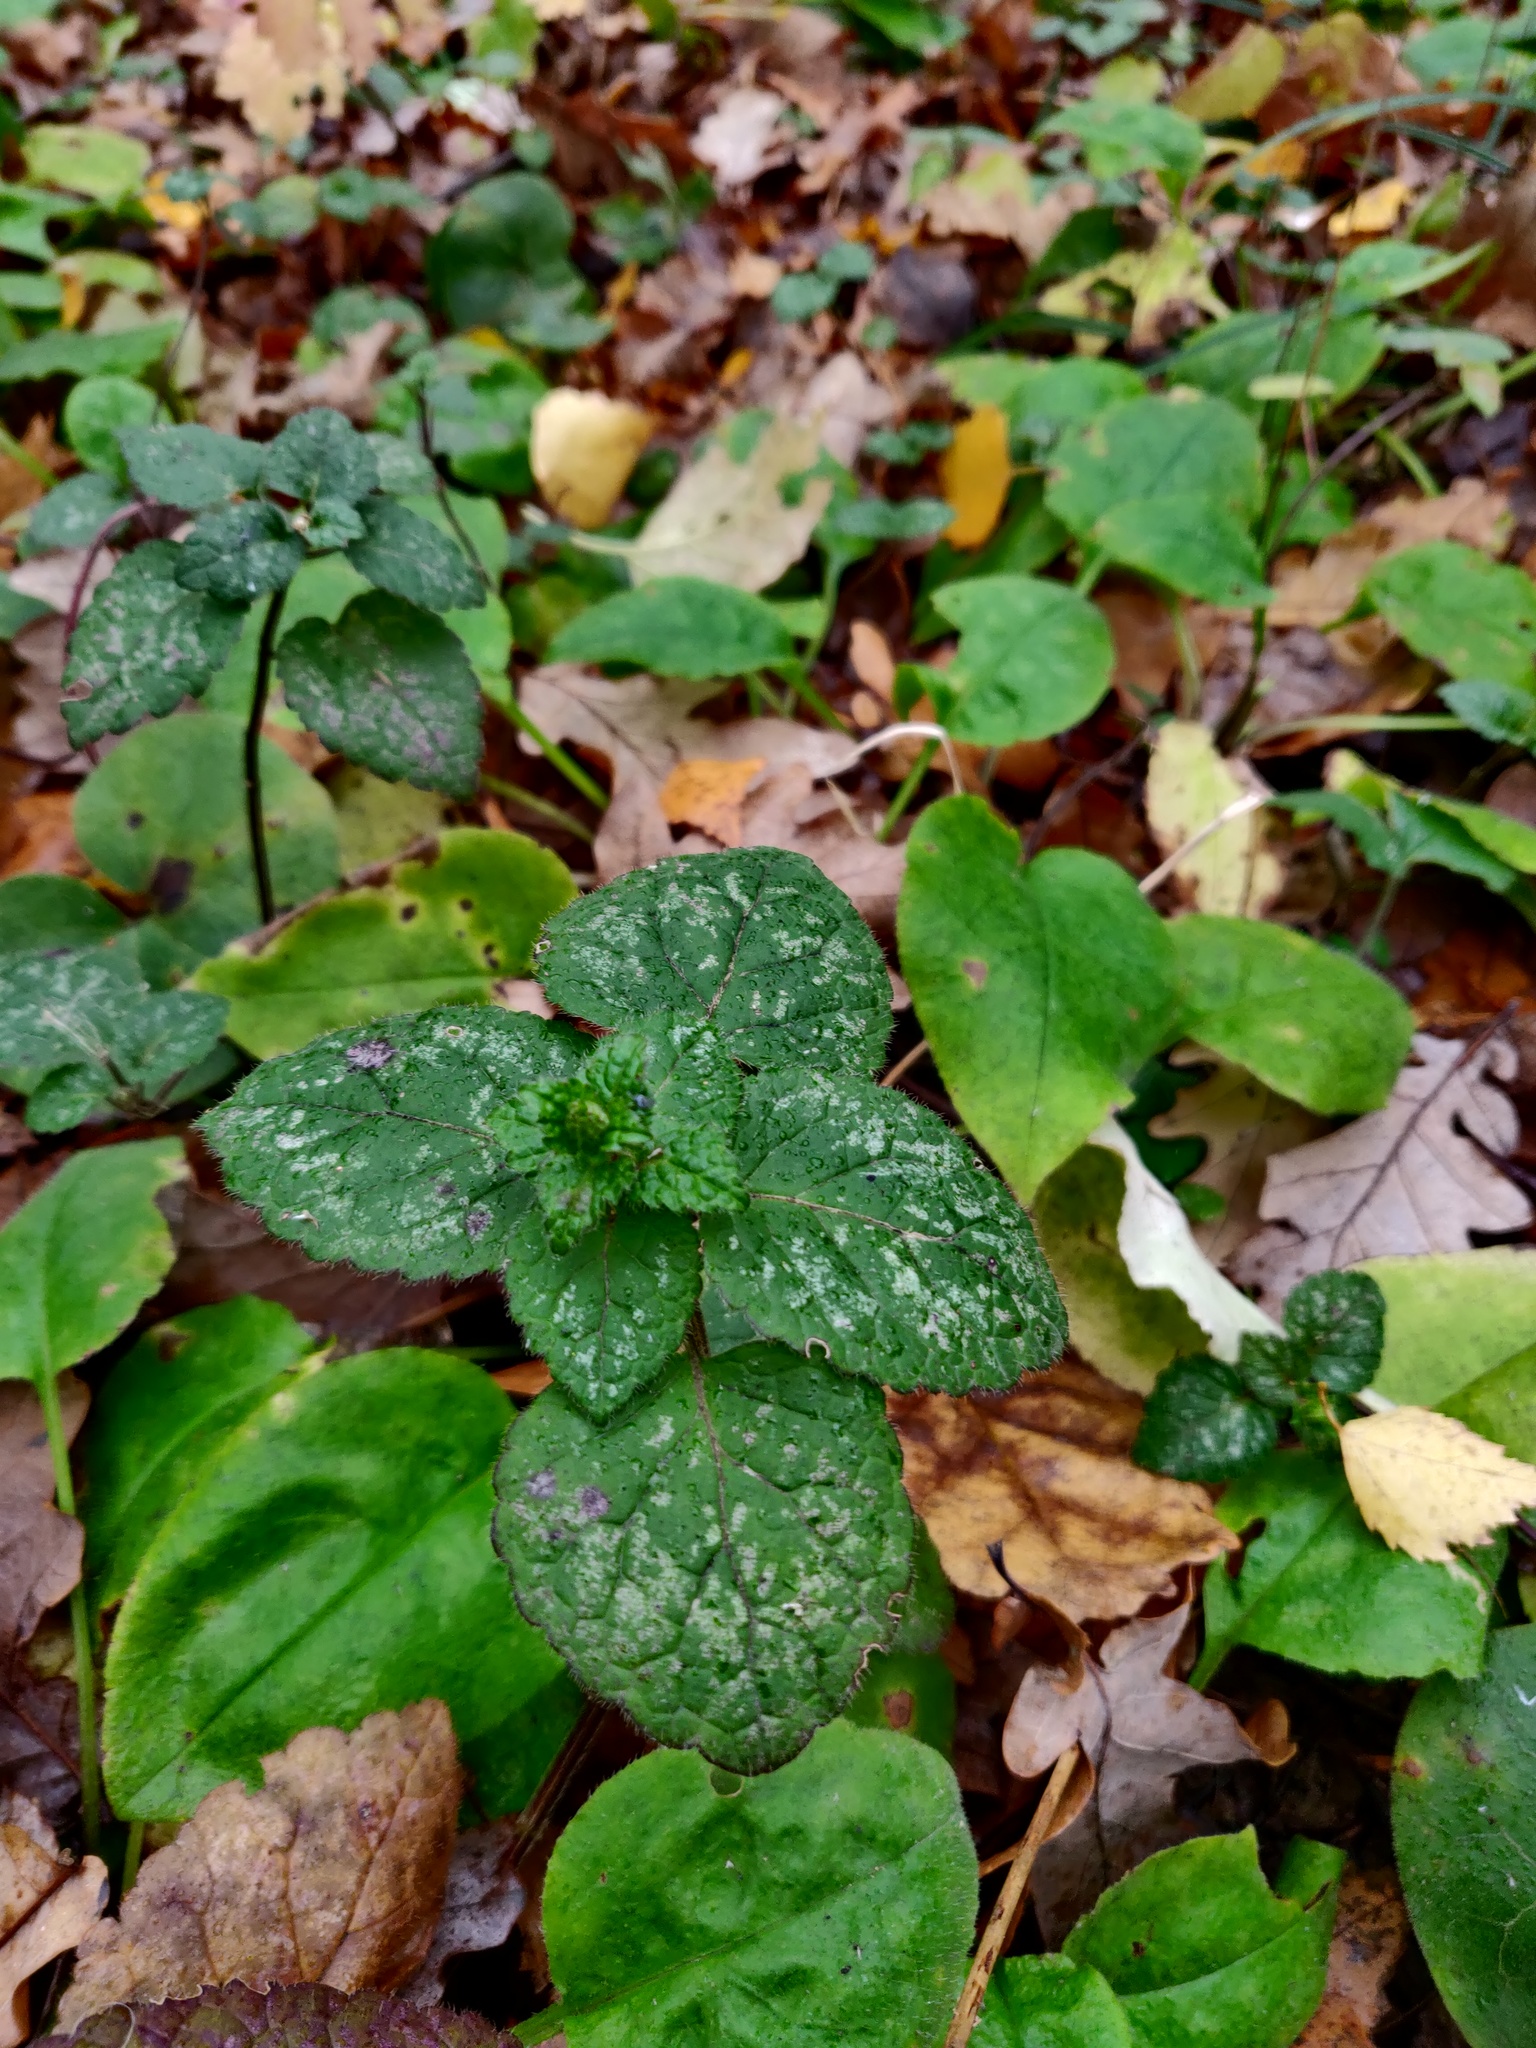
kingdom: Plantae
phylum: Tracheophyta
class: Magnoliopsida
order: Lamiales
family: Lamiaceae
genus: Lamium
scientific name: Lamium galeobdolon
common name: Yellow archangel
